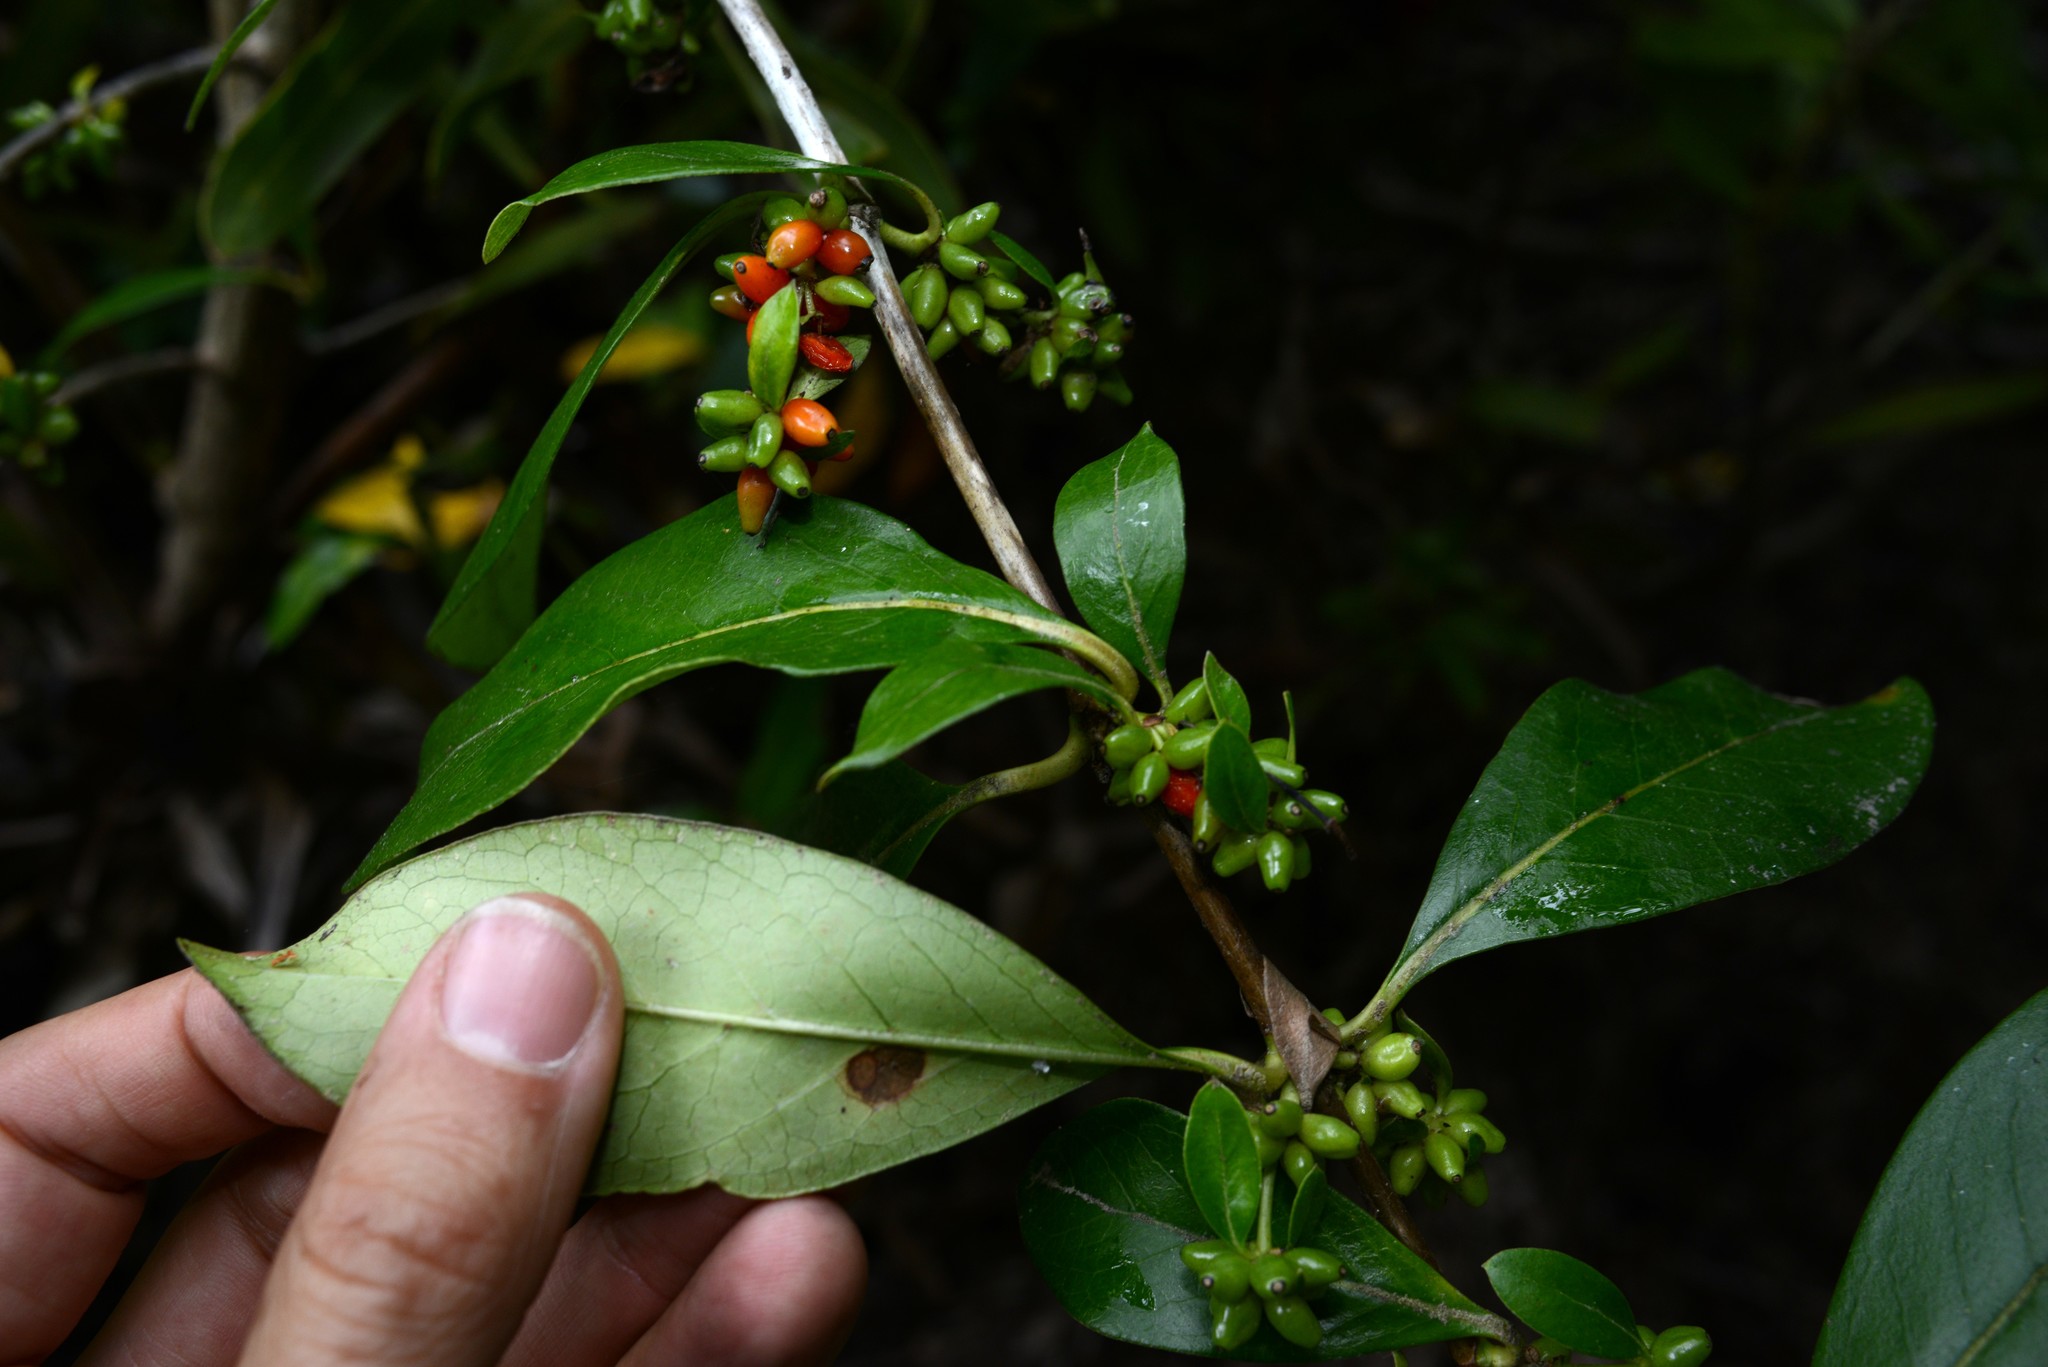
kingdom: Plantae
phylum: Tracheophyta
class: Magnoliopsida
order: Gentianales
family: Rubiaceae
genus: Coprosma
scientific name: Coprosma robusta
